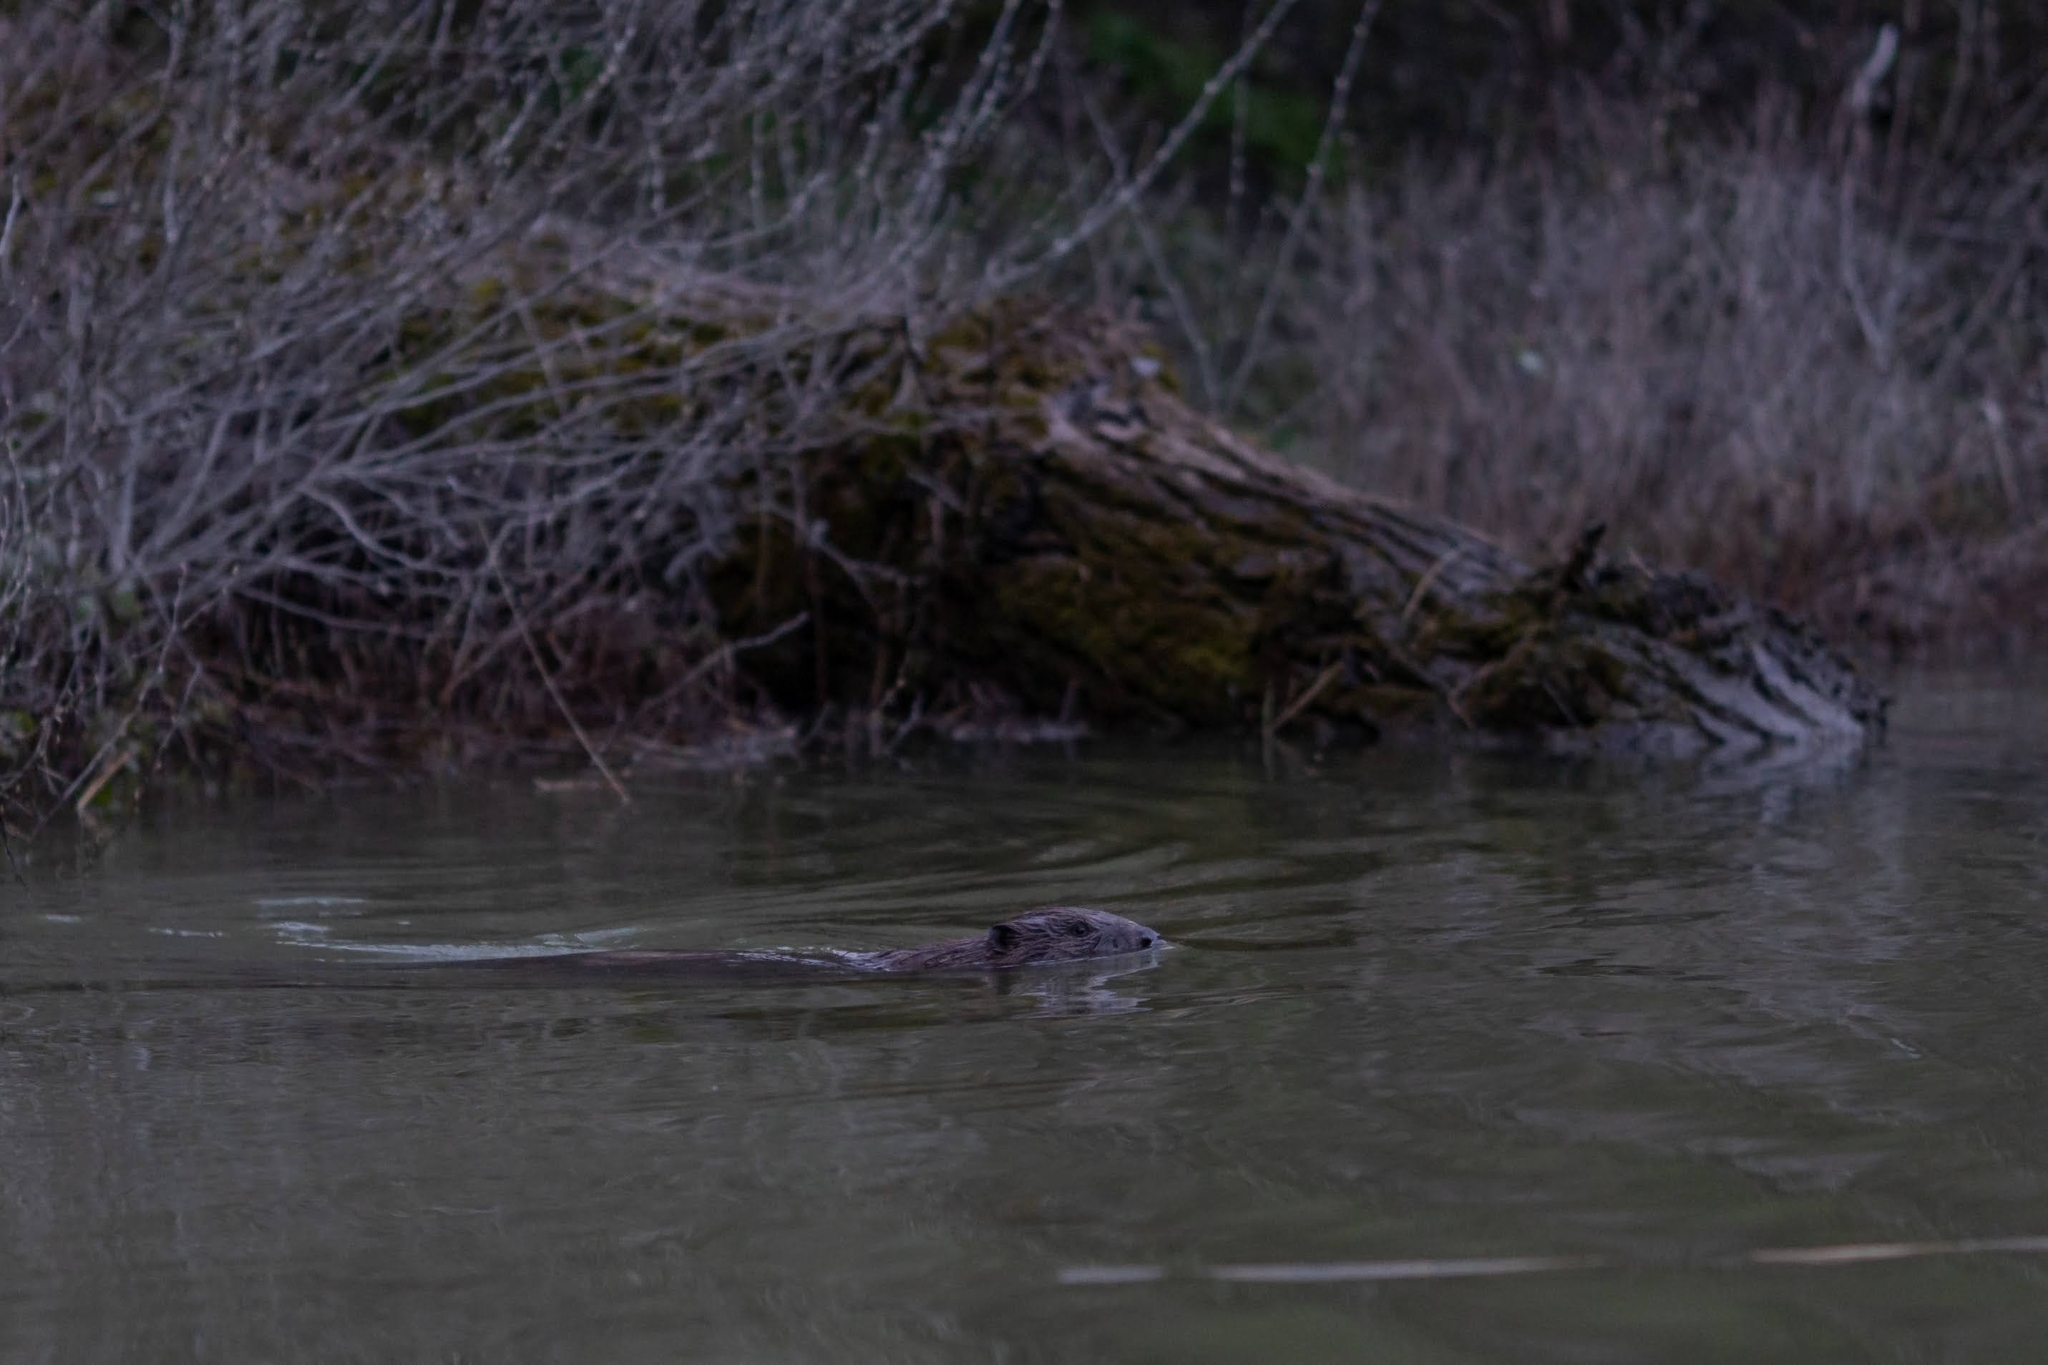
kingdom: Animalia
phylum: Chordata
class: Mammalia
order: Rodentia
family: Castoridae
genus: Castor
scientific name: Castor fiber
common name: Eurasian beaver
